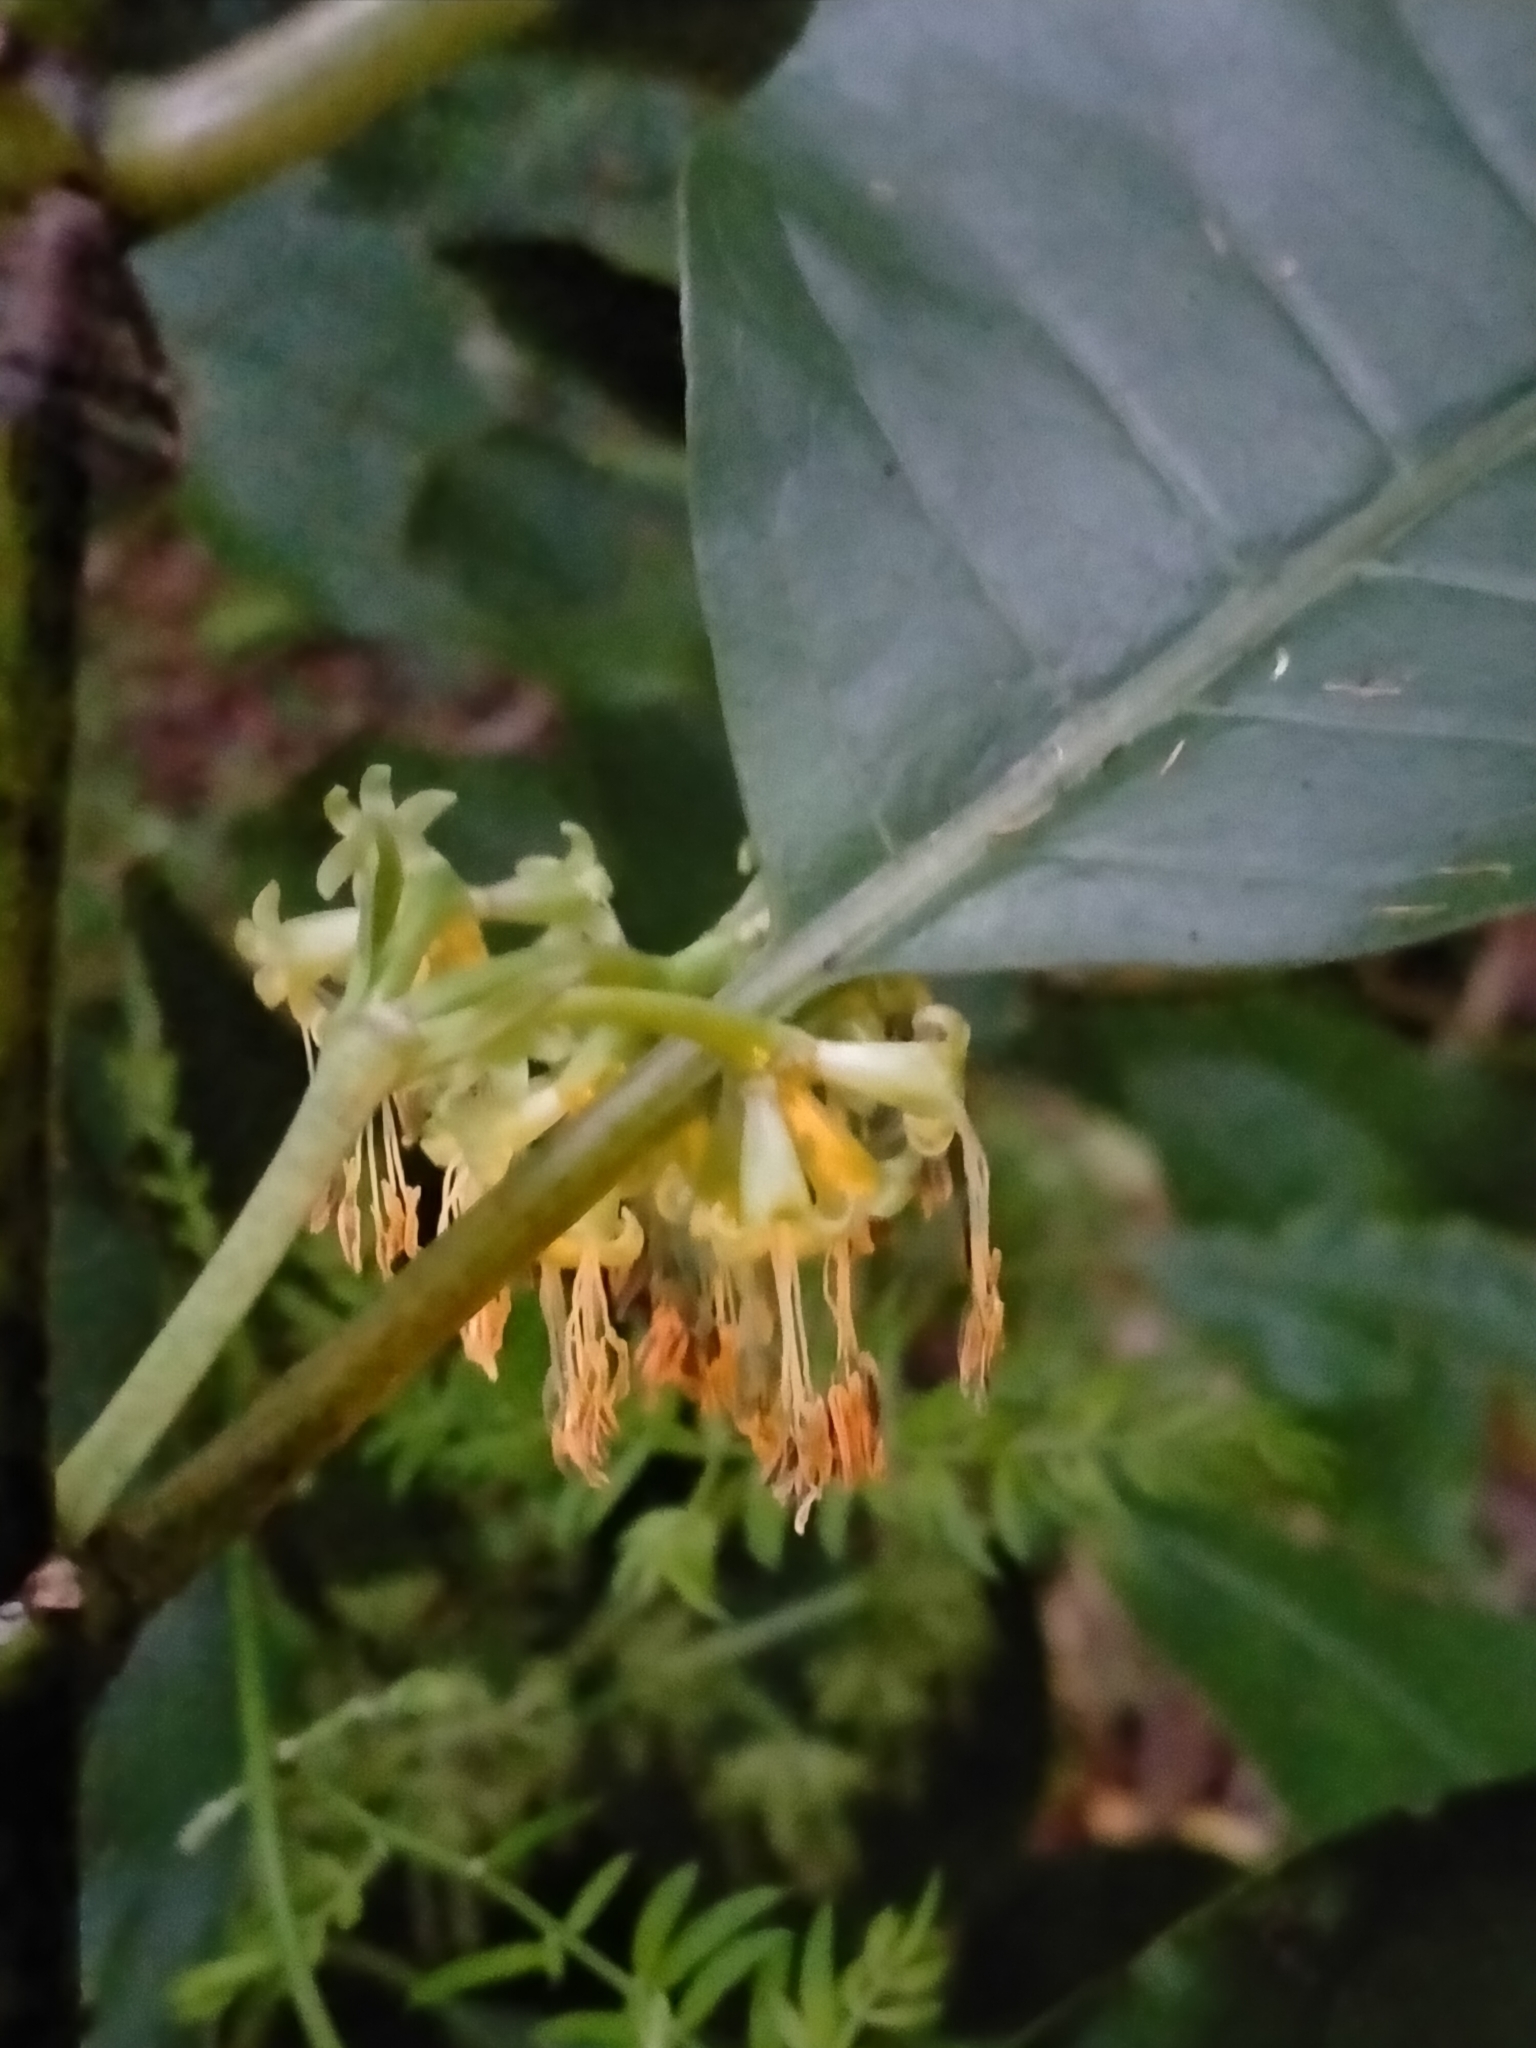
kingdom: Plantae
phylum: Tracheophyta
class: Magnoliopsida
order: Gentianales
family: Rubiaceae
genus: Coprosma
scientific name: Coprosma autumnalis
